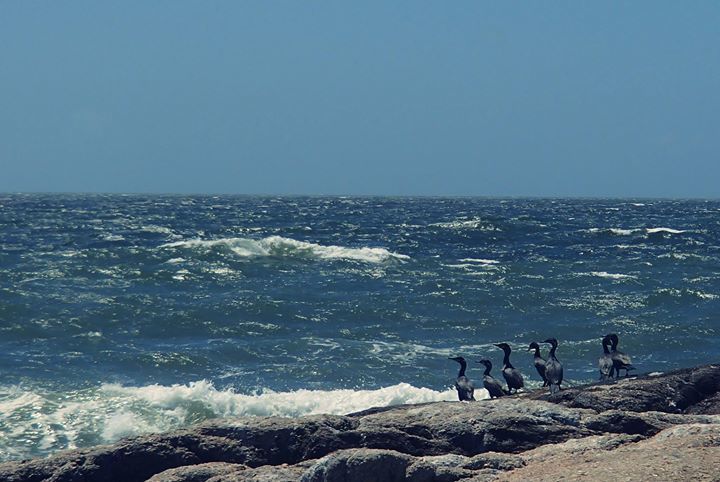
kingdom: Animalia
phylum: Chordata
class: Aves
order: Suliformes
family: Phalacrocoracidae
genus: Phalacrocorax
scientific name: Phalacrocorax brasilianus
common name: Neotropic cormorant
